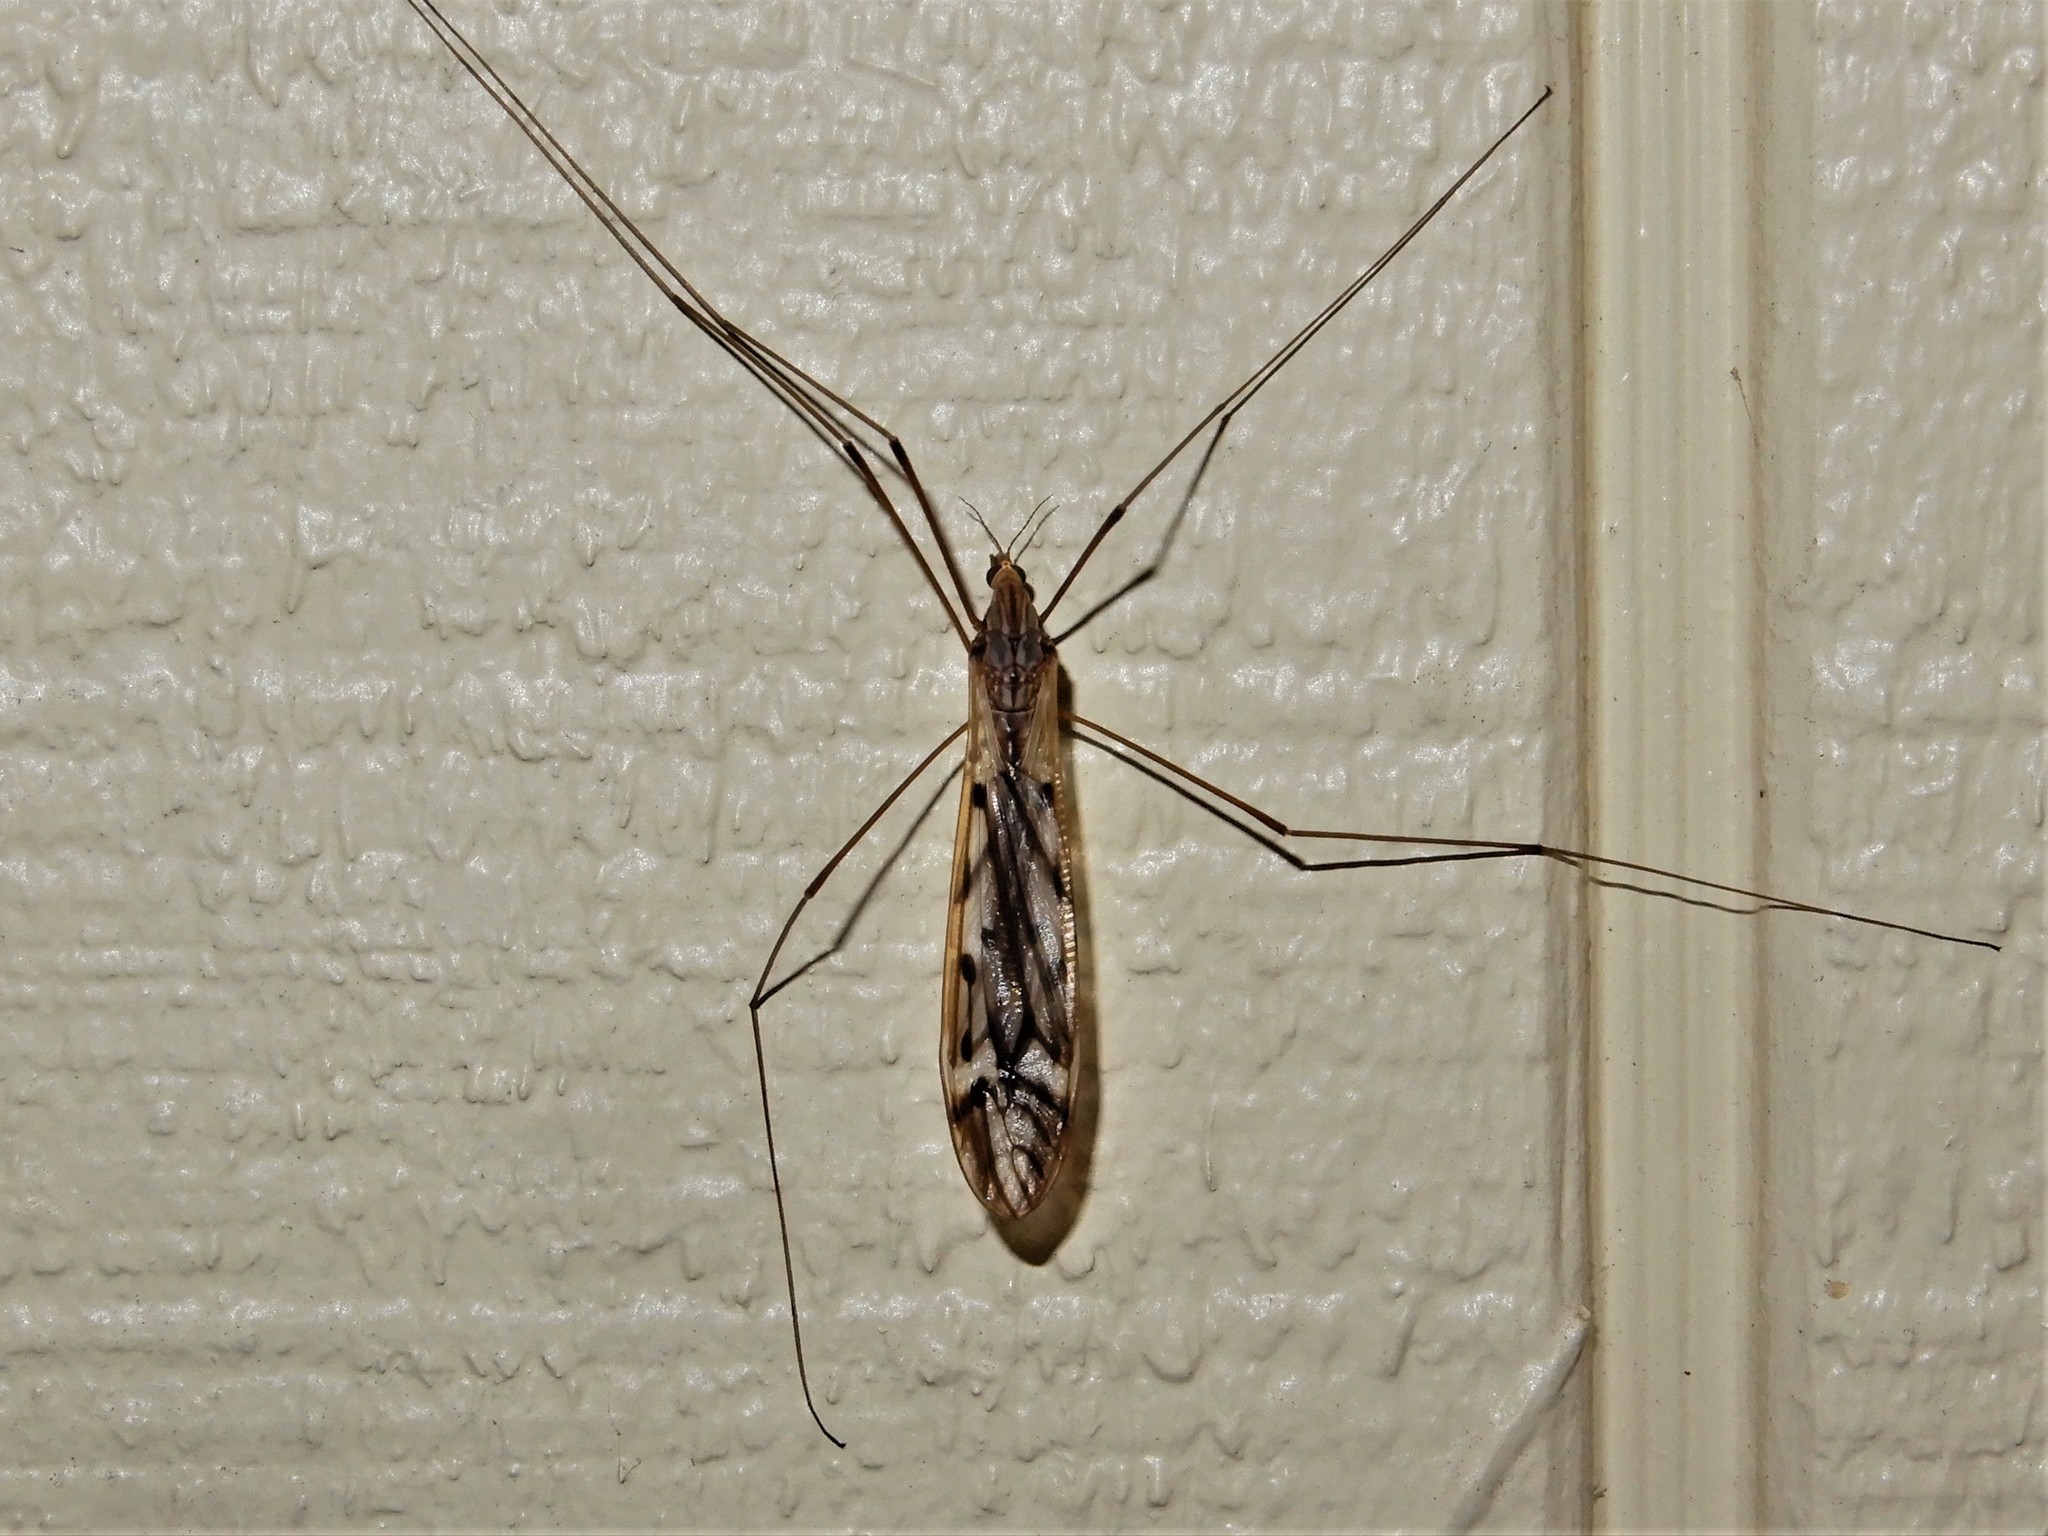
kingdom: Animalia
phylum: Arthropoda
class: Insecta
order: Diptera
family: Tipulidae
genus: Zelandotipula
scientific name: Zelandotipula novarae
